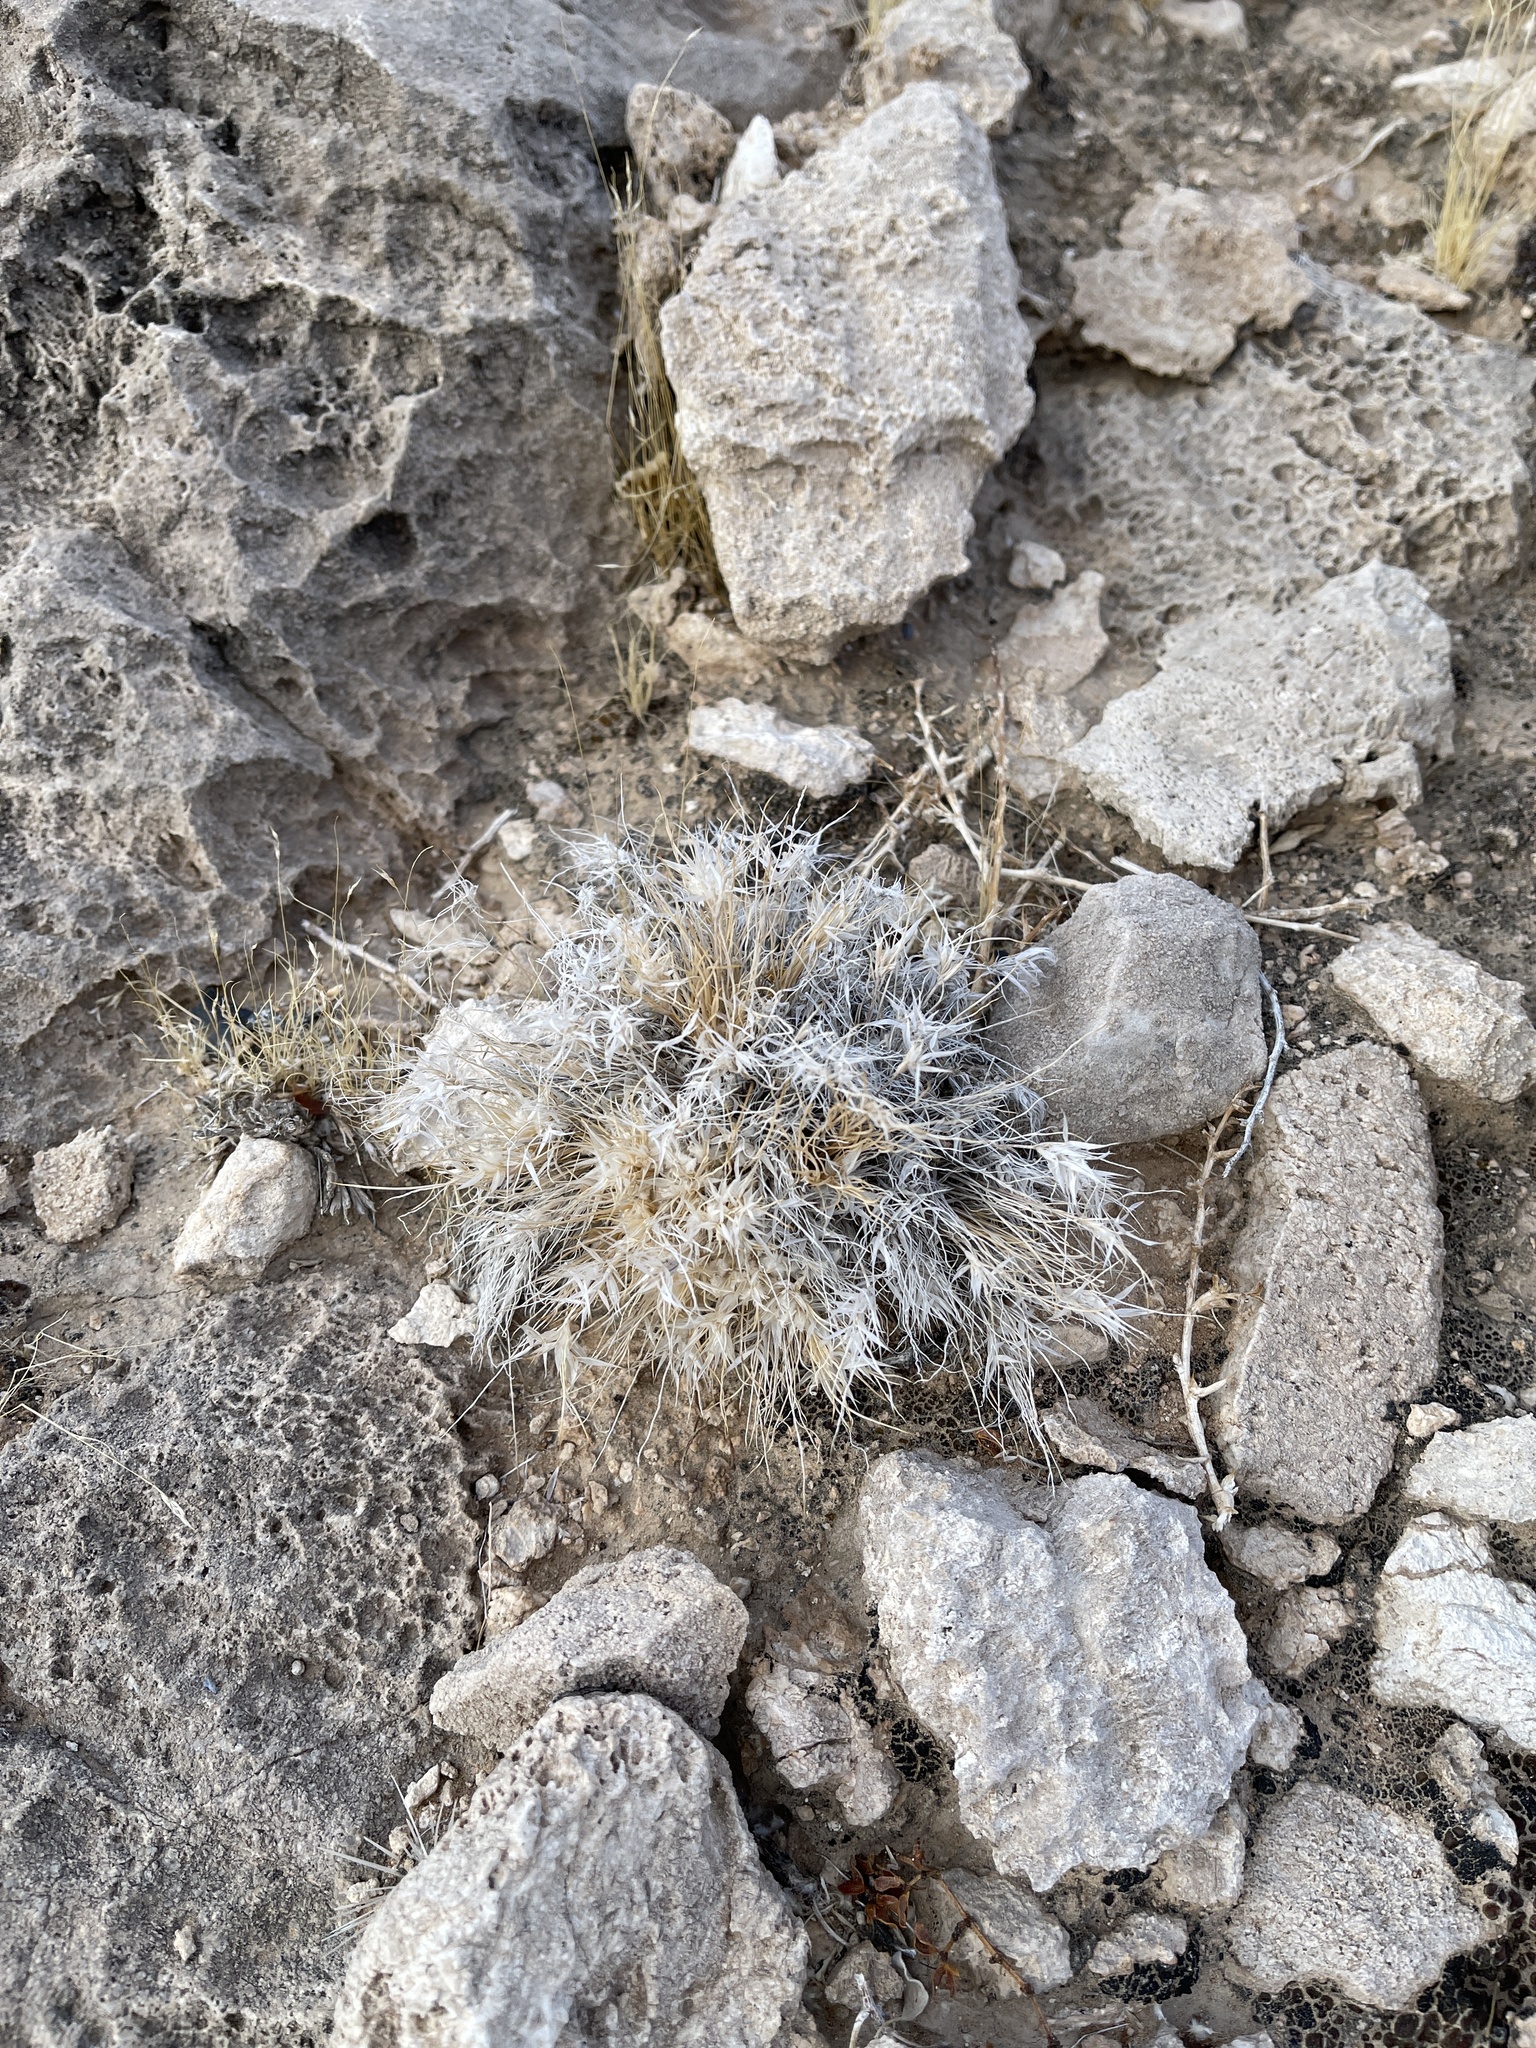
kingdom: Plantae
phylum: Tracheophyta
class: Liliopsida
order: Poales
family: Poaceae
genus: Dasyochloa
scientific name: Dasyochloa pulchella
